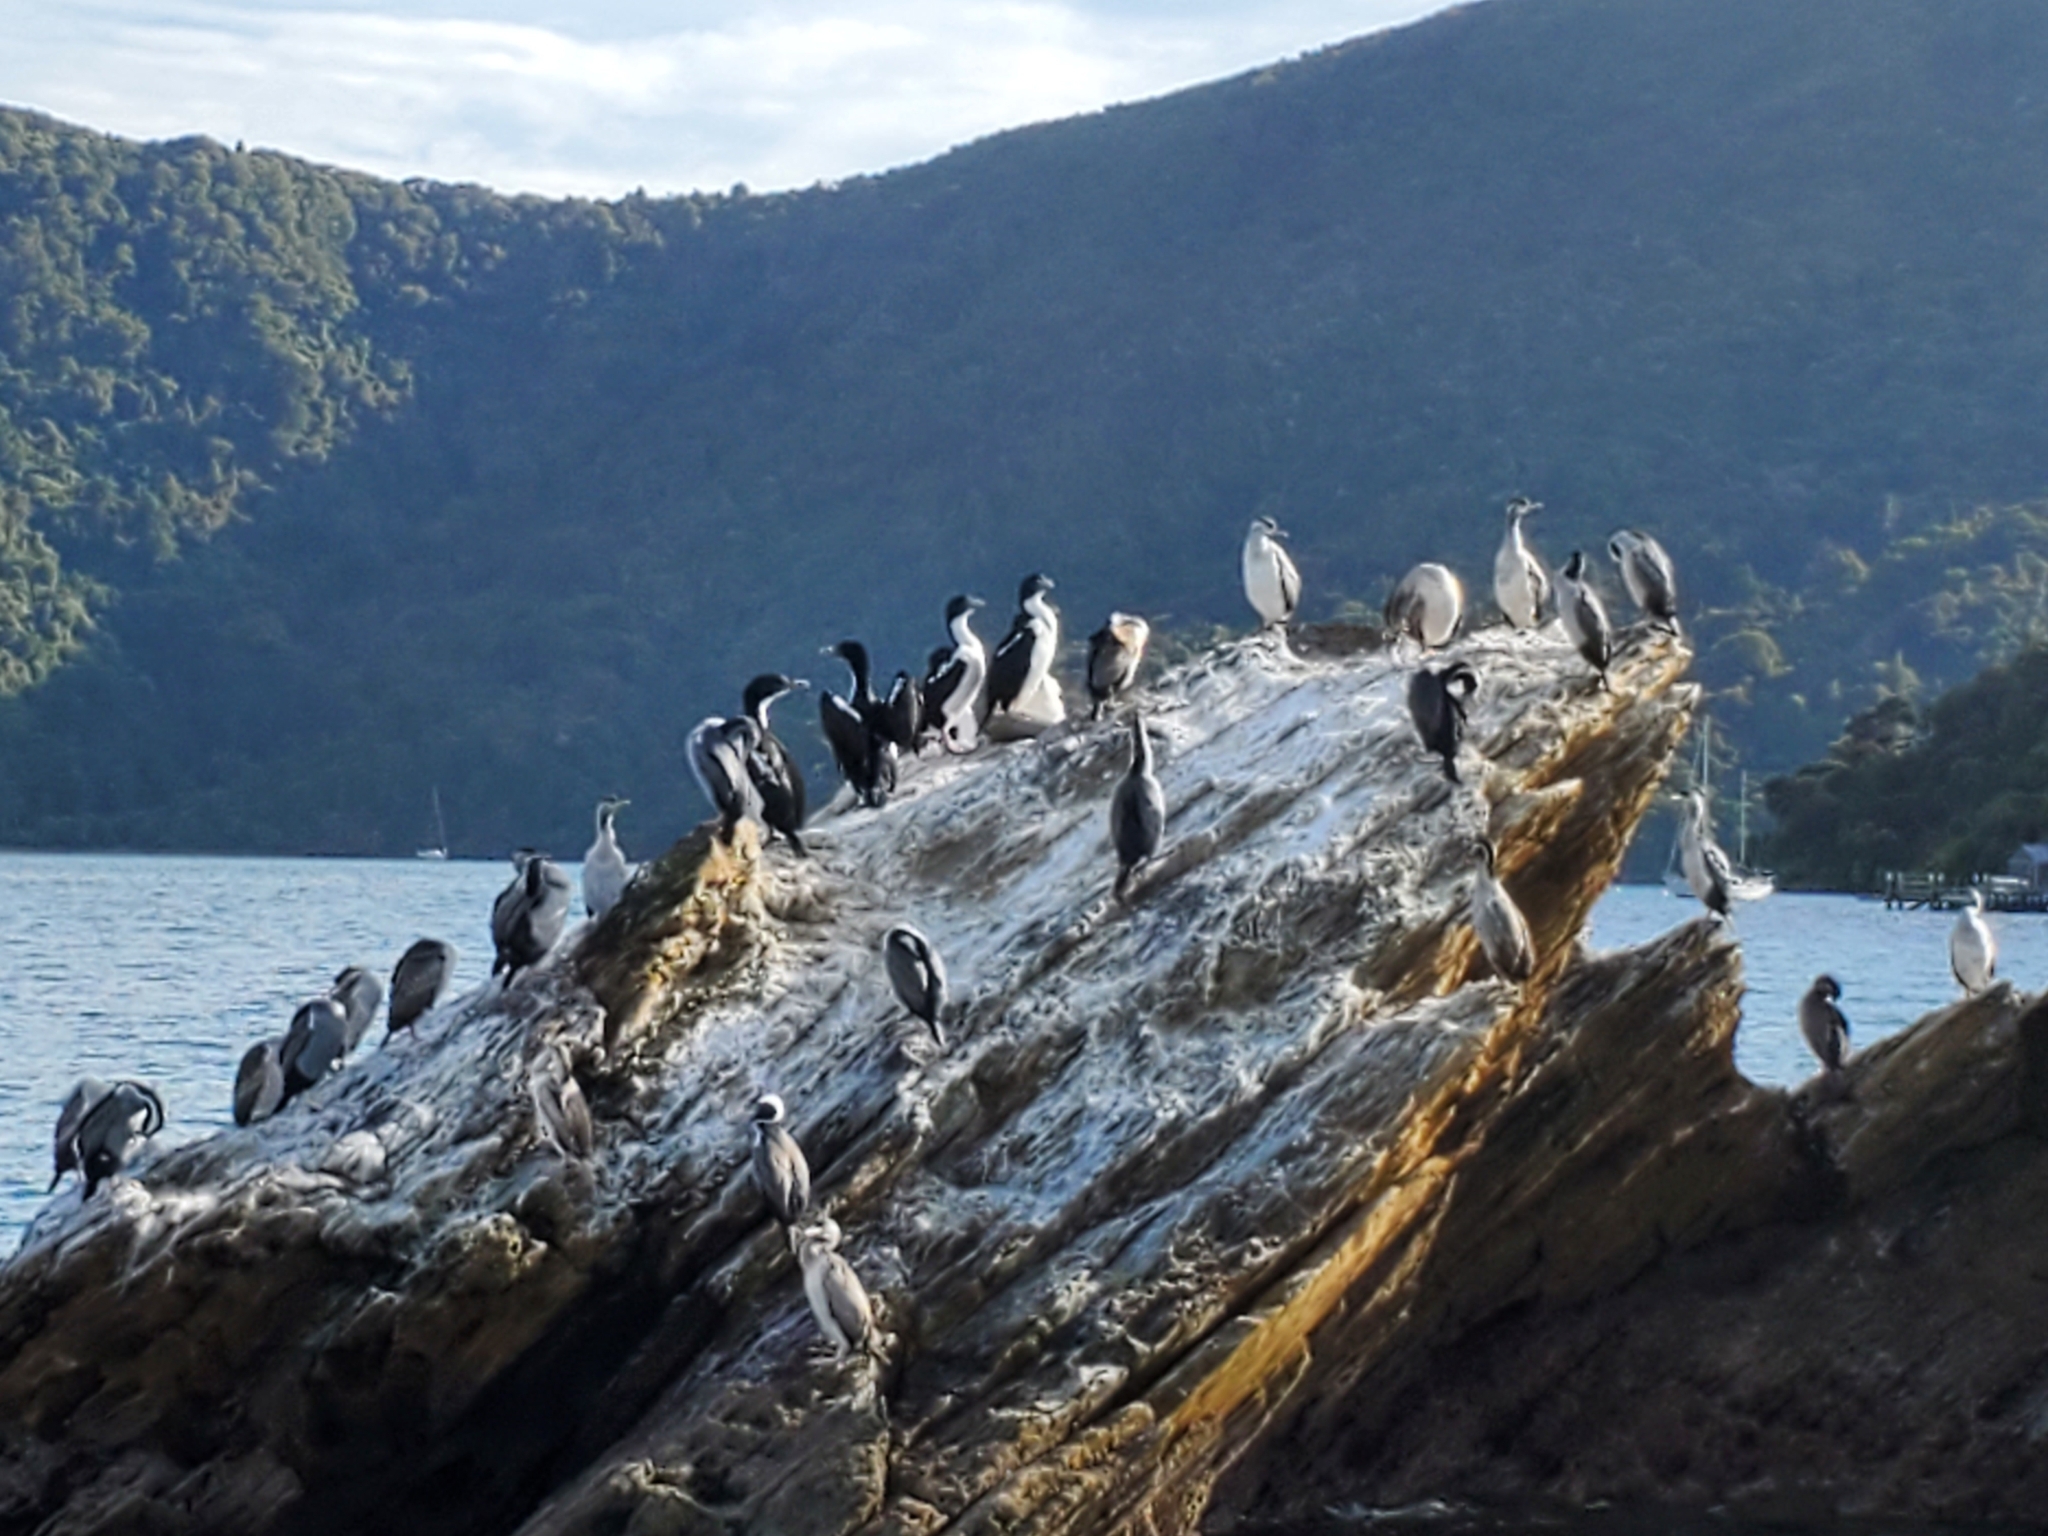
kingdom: Animalia
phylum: Chordata
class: Aves
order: Suliformes
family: Phalacrocoracidae
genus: Phalacrocorax
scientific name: Phalacrocorax punctatus
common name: Spotted shag
